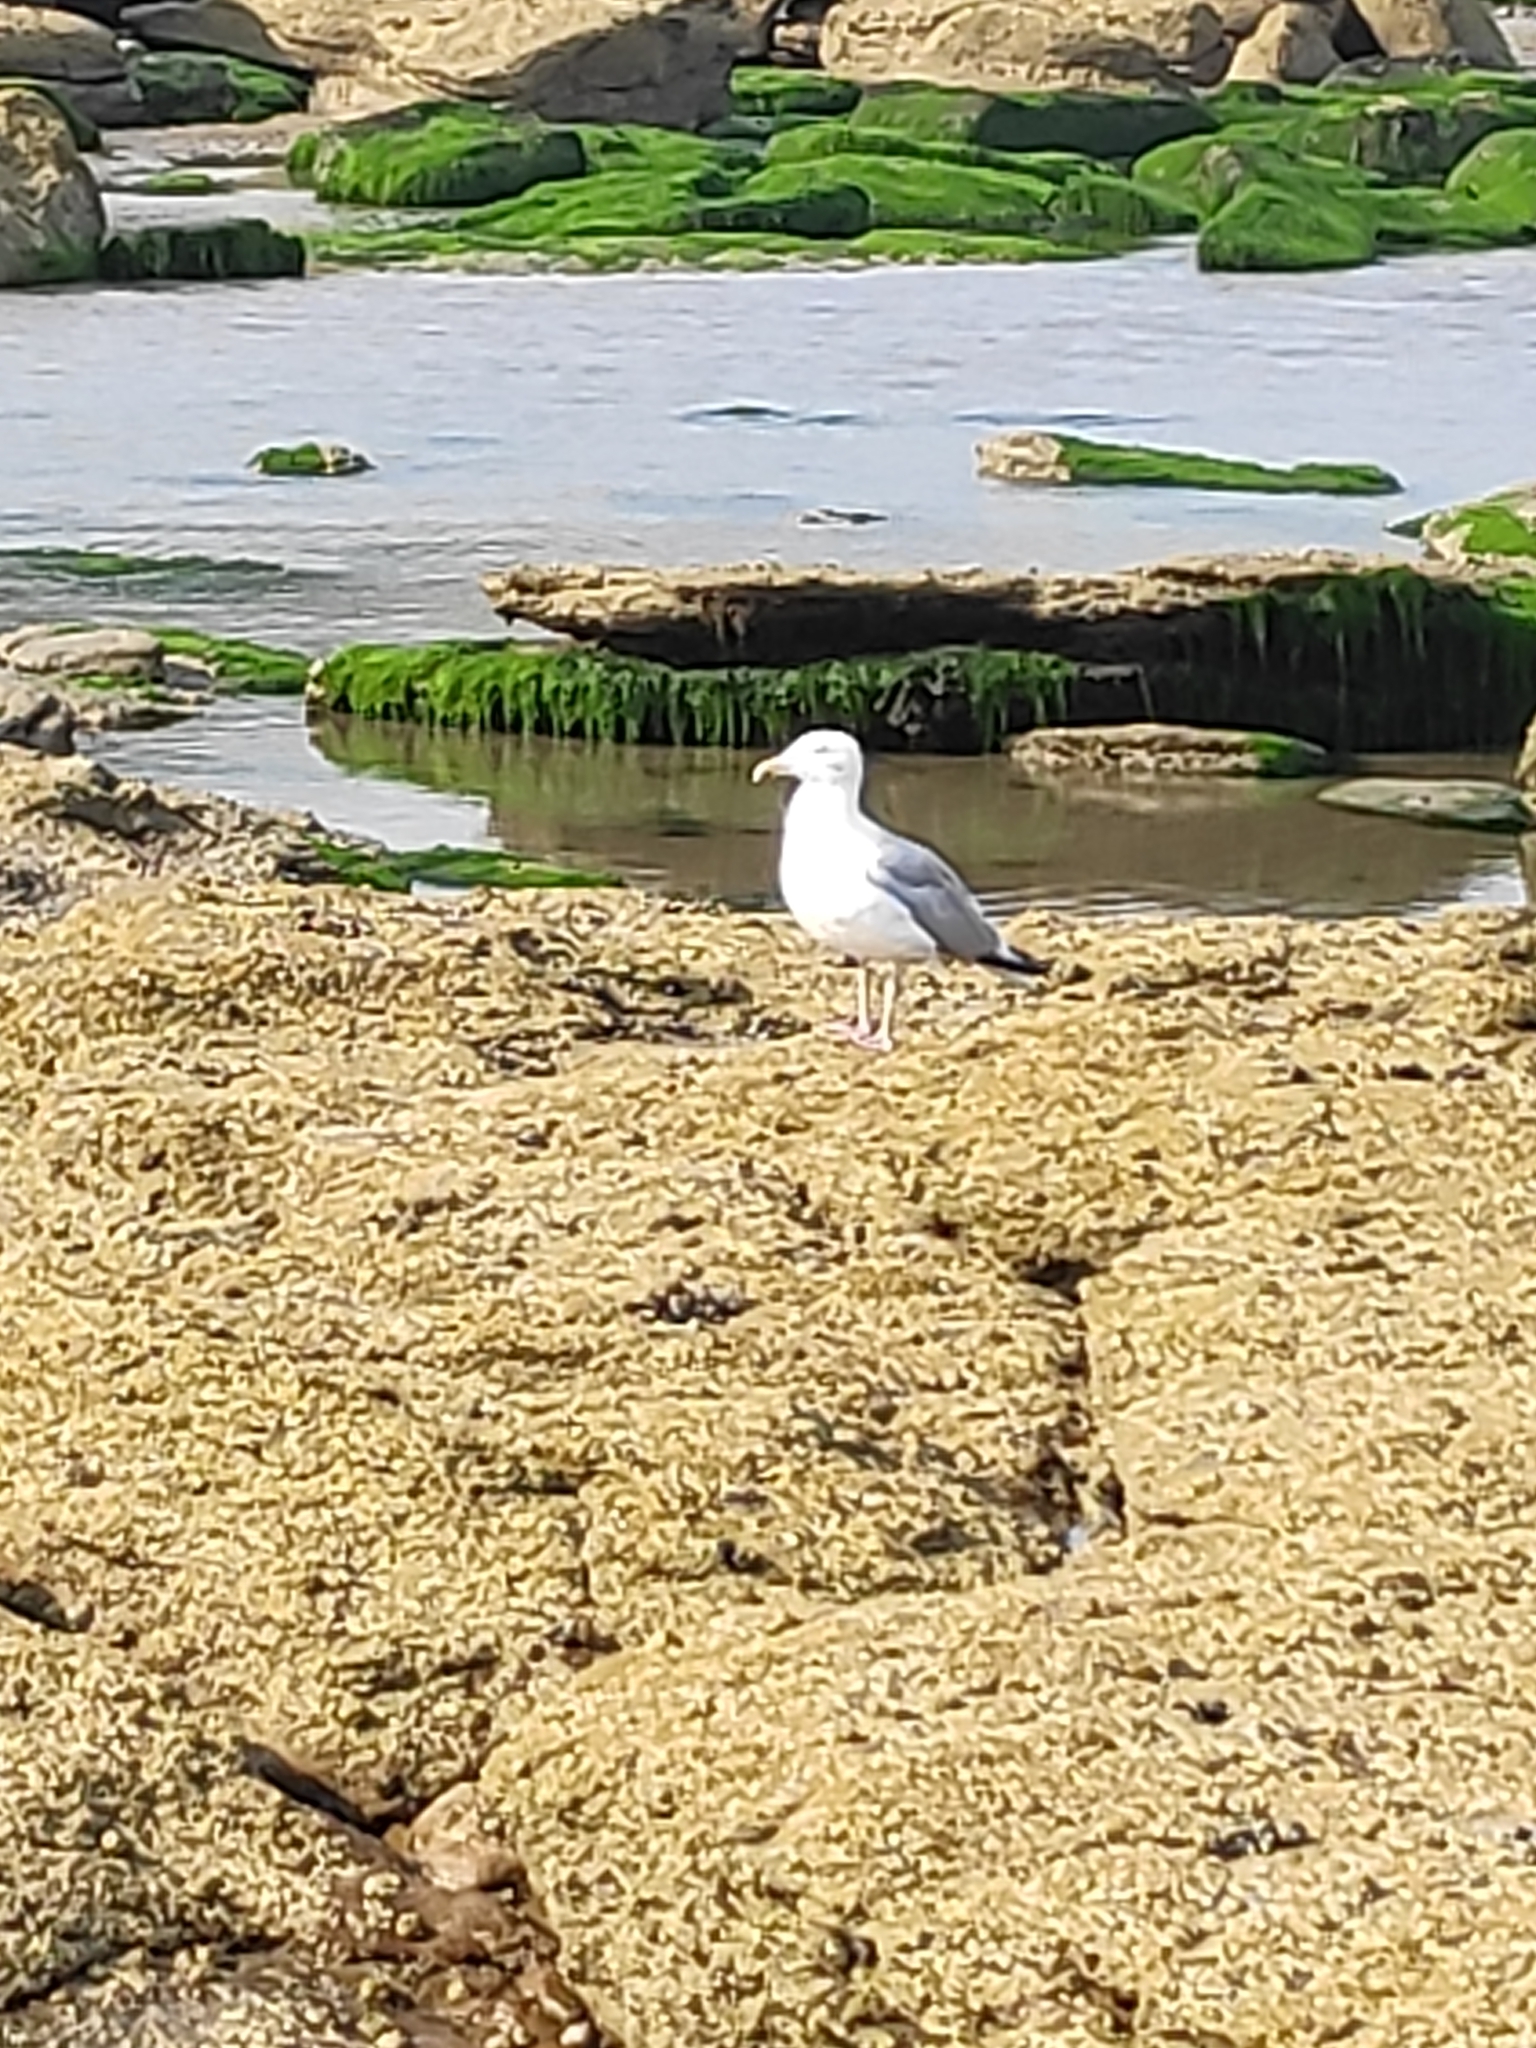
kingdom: Animalia
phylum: Chordata
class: Aves
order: Charadriiformes
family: Laridae
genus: Larus
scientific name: Larus argentatus
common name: Herring gull
